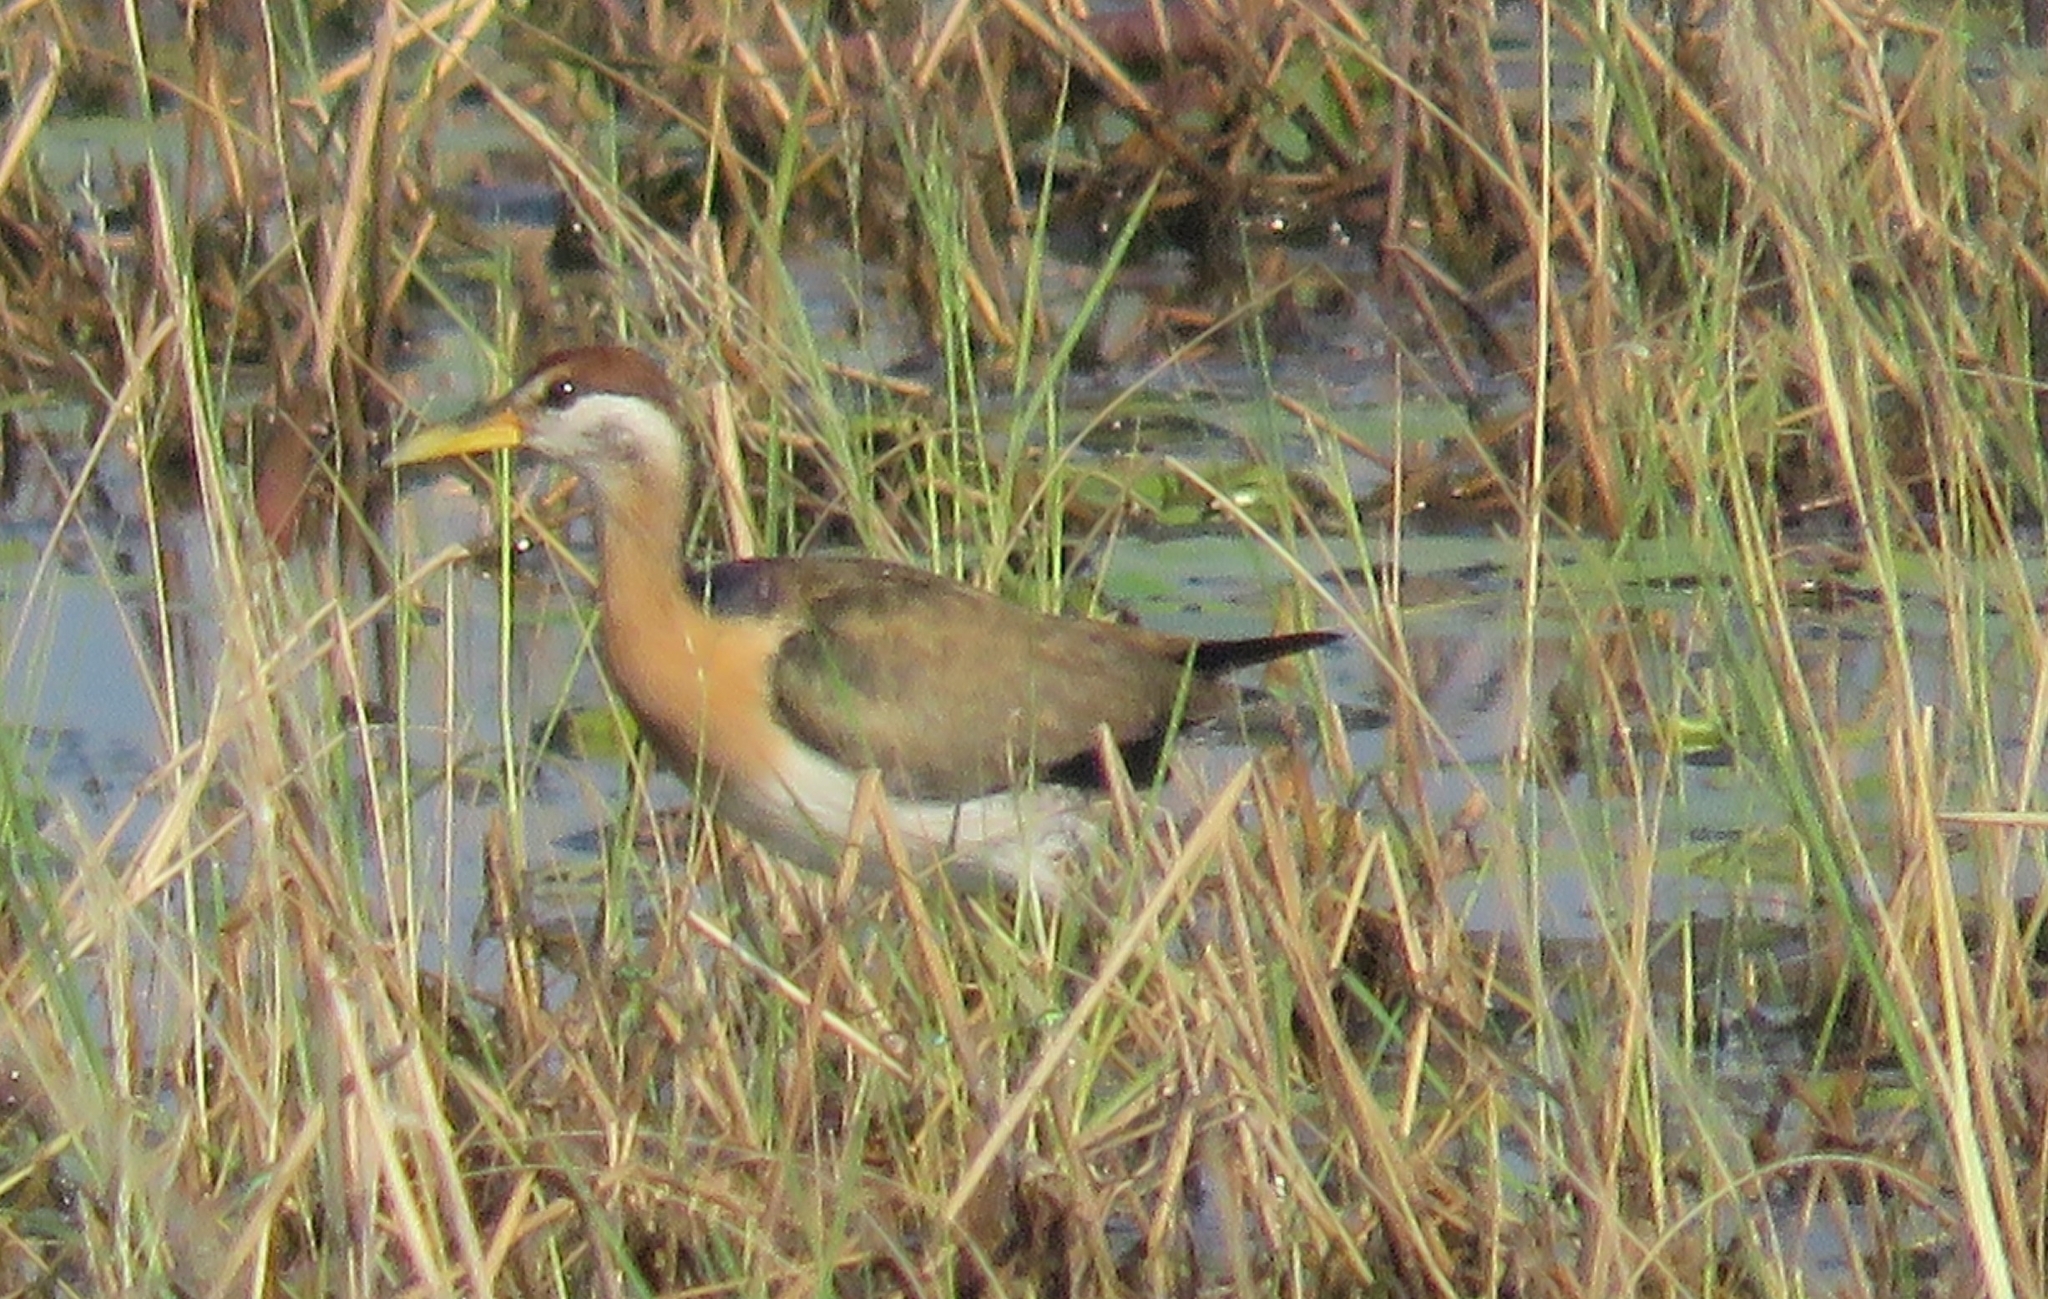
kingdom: Animalia
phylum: Chordata
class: Aves
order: Charadriiformes
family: Jacanidae
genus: Metopidius
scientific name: Metopidius indicus
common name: Bronze-winged jacana
